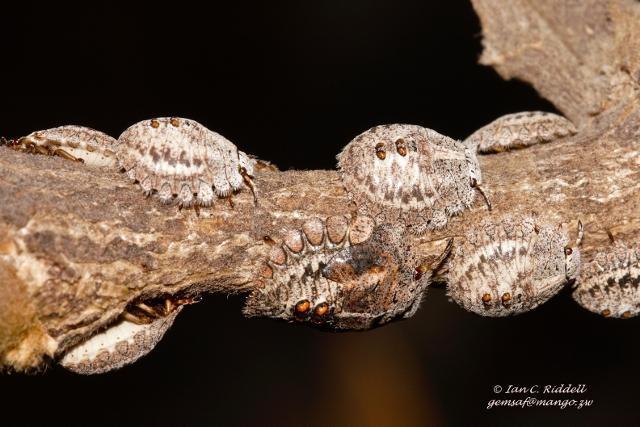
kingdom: Animalia
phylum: Arthropoda
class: Insecta
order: Hemiptera
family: Plataspidae
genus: Libyaspis
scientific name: Libyaspis
